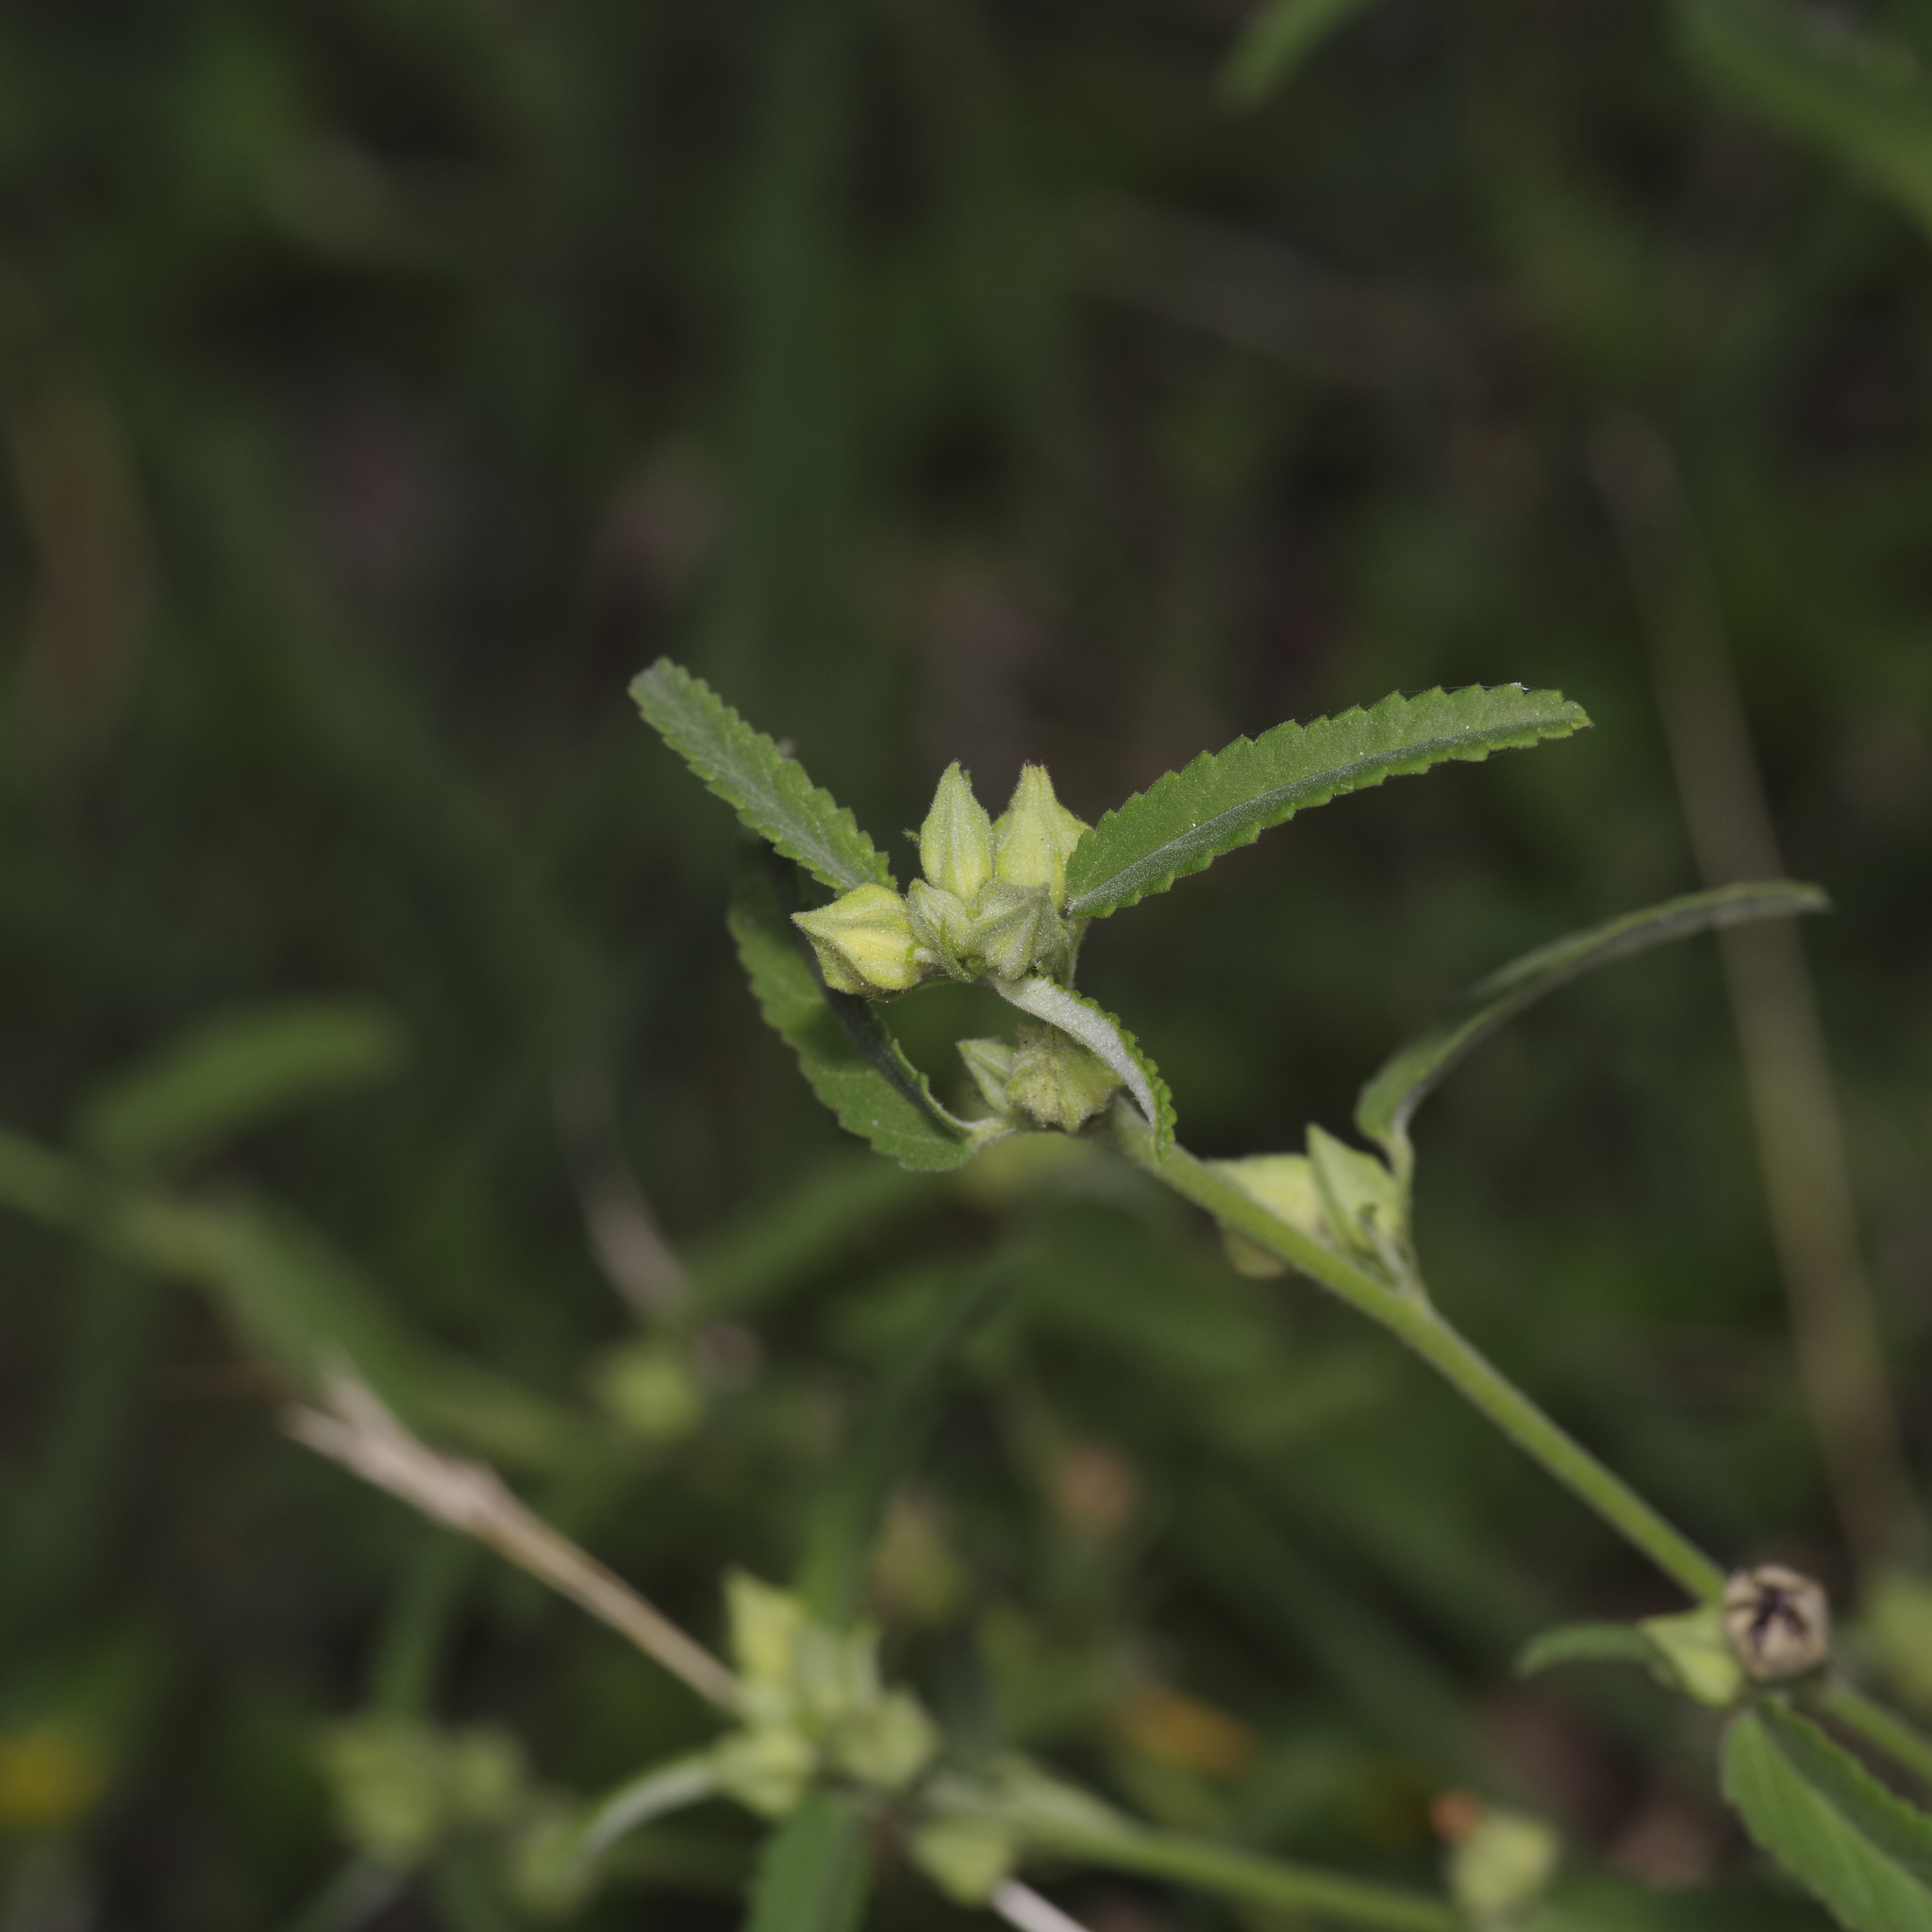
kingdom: Plantae
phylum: Tracheophyta
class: Magnoliopsida
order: Malvales
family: Malvaceae
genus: Sida
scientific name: Sida spinosa
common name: Prickly fanpetals
